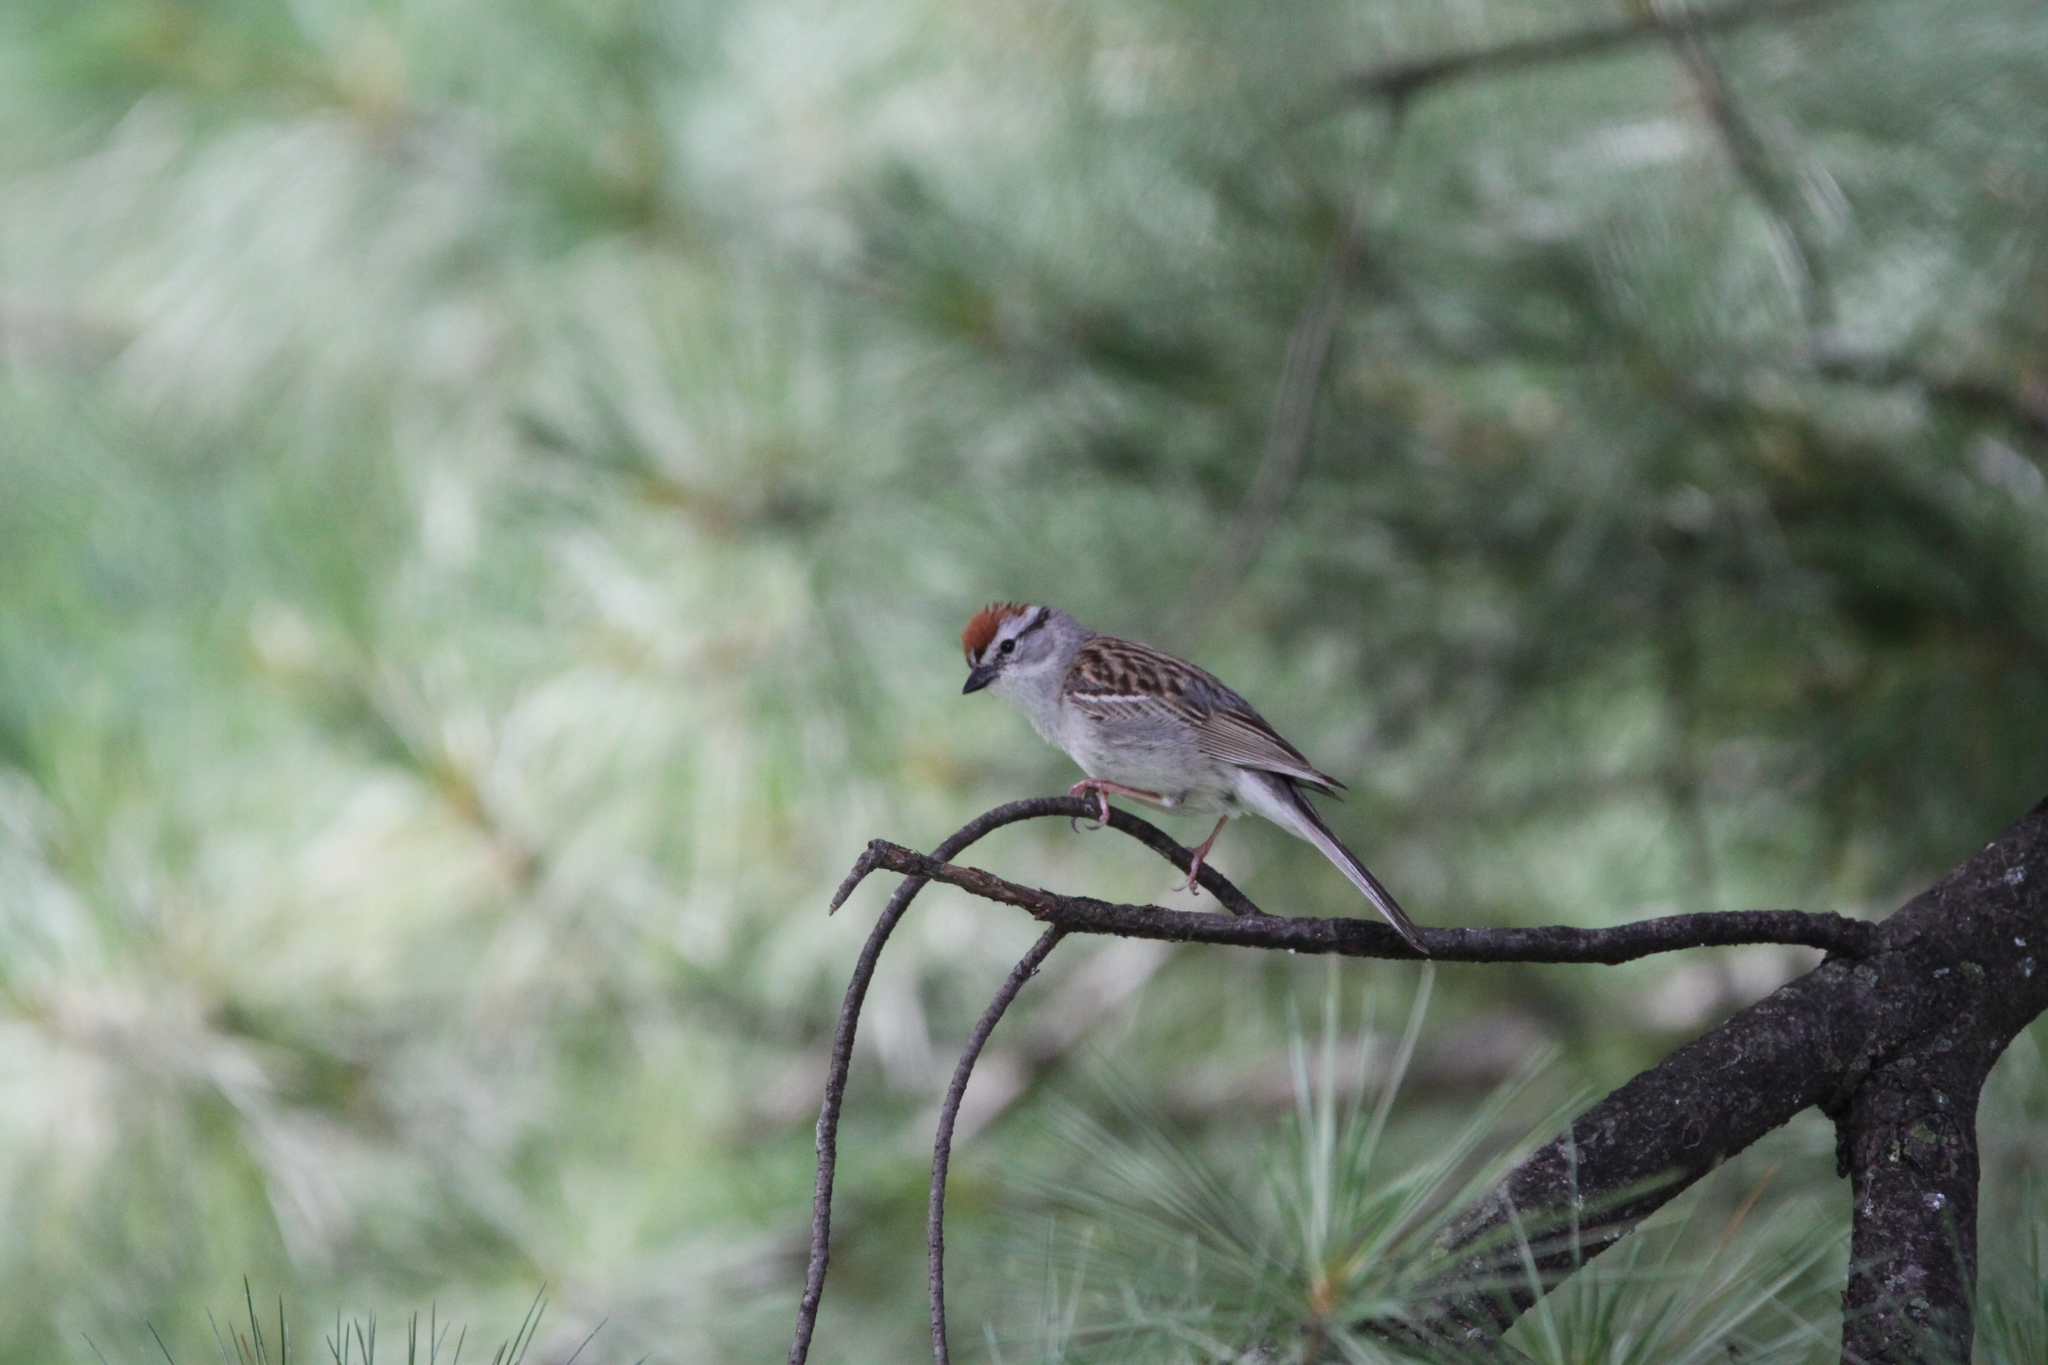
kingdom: Animalia
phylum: Chordata
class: Aves
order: Passeriformes
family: Passerellidae
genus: Spizella
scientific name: Spizella passerina
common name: Chipping sparrow
